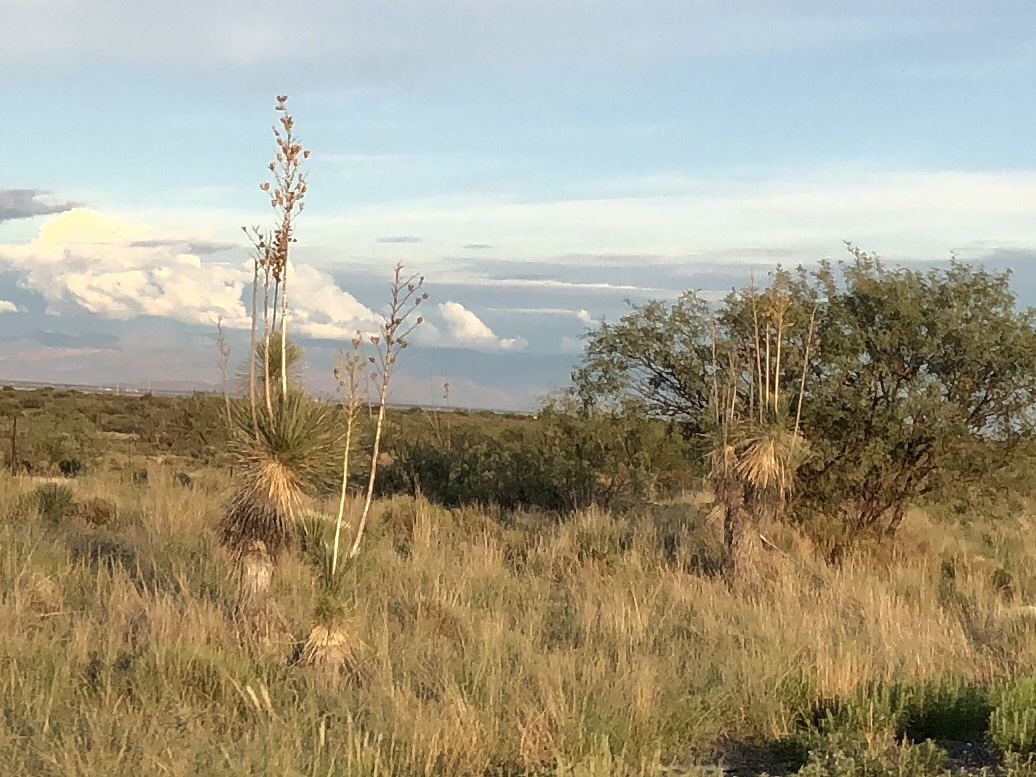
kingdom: Plantae
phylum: Tracheophyta
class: Liliopsida
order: Asparagales
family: Asparagaceae
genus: Yucca
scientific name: Yucca elata
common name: Palmella
